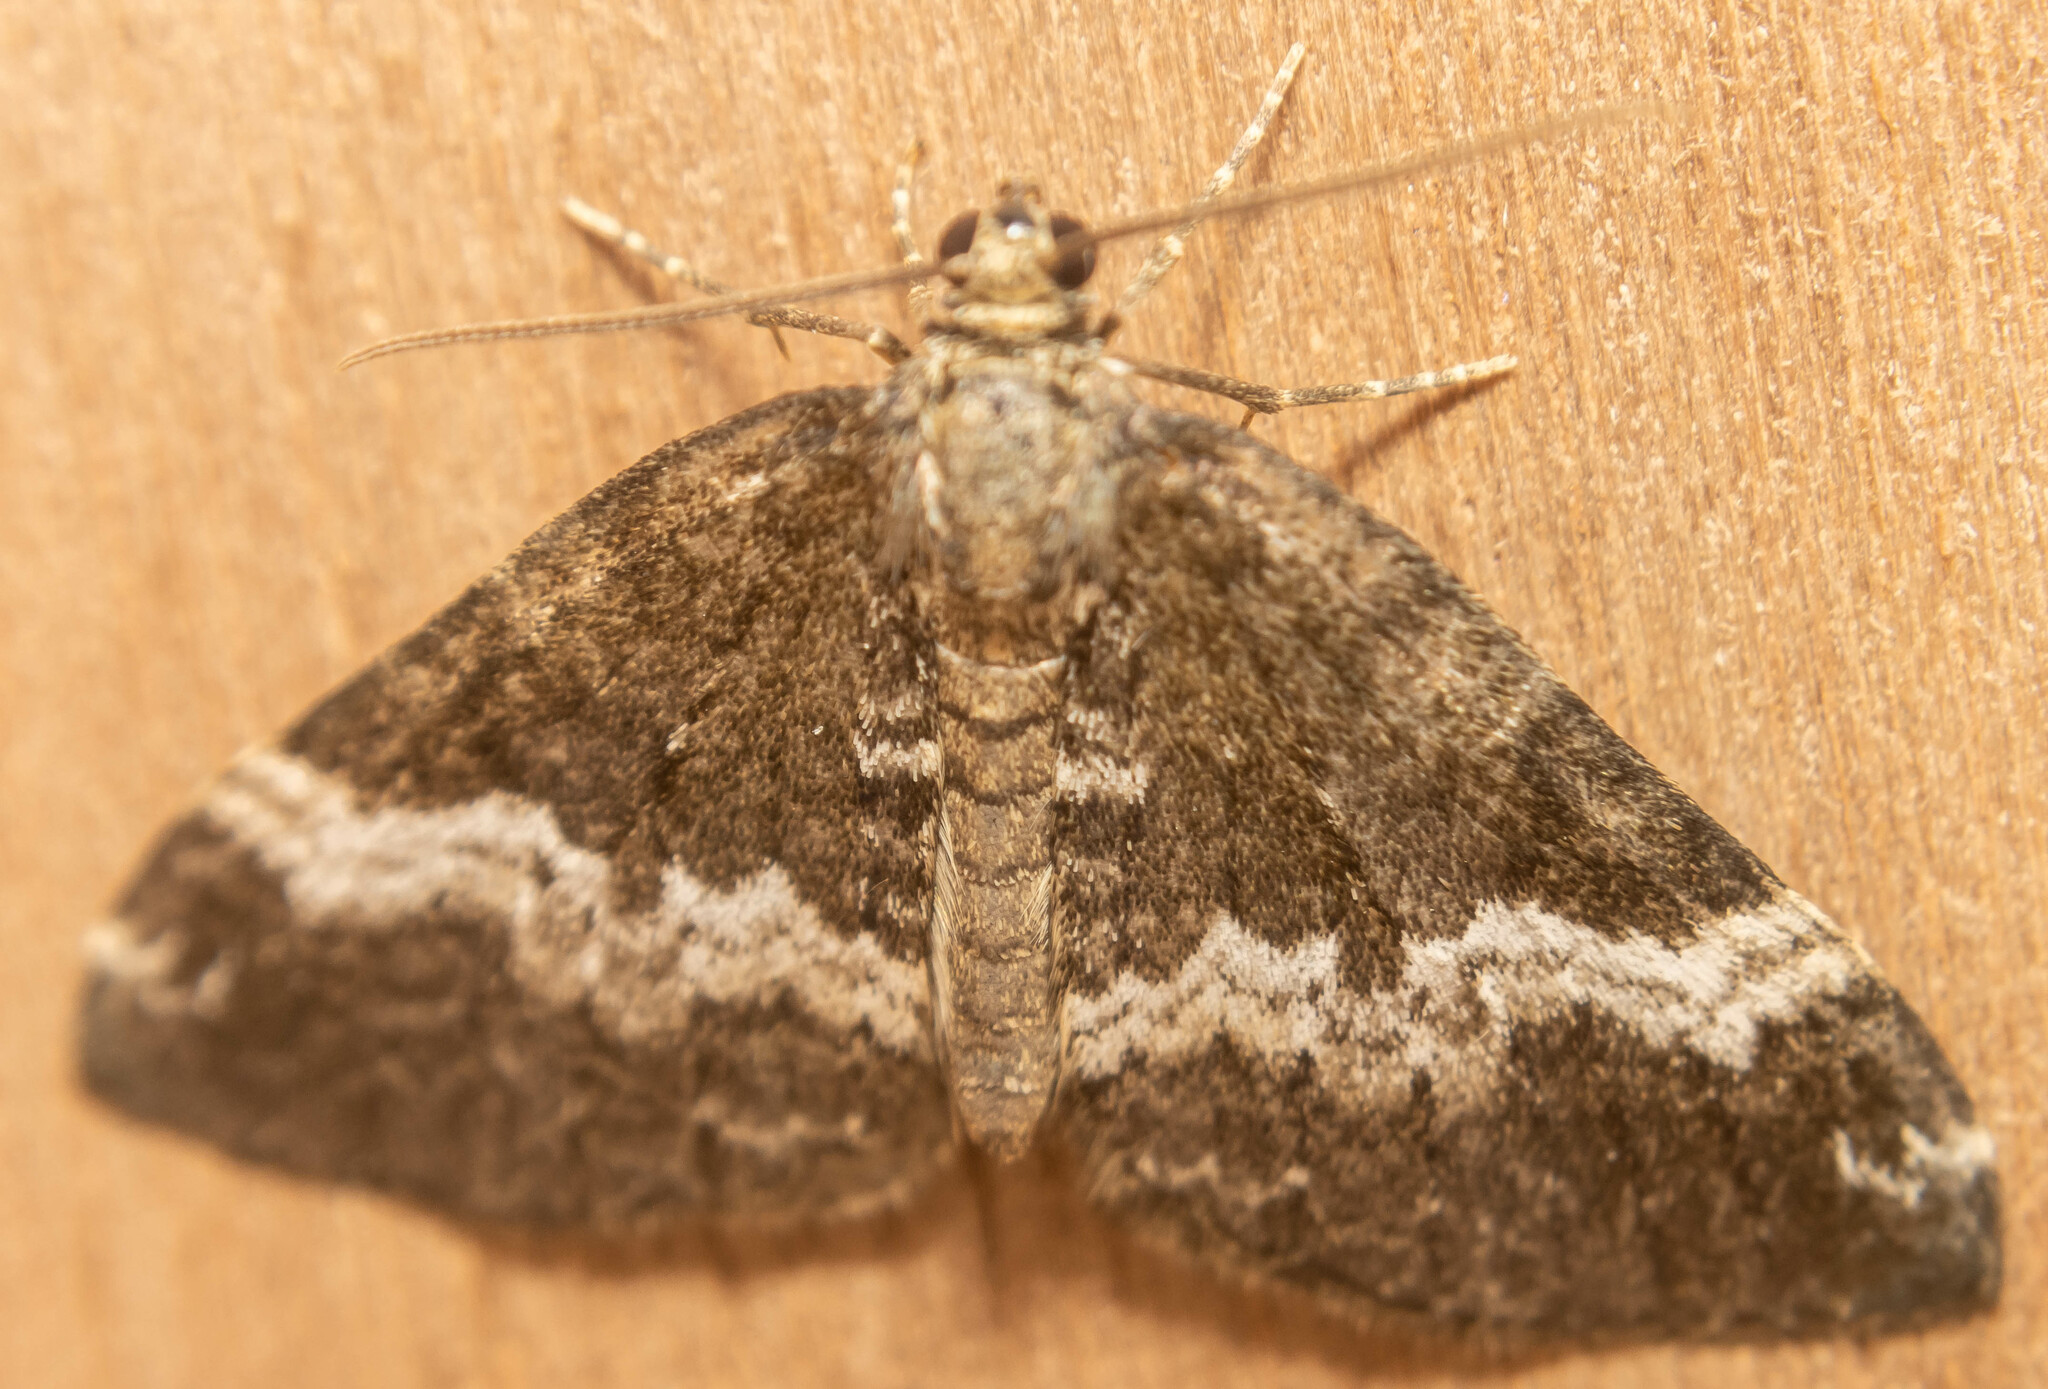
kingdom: Animalia
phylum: Arthropoda
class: Insecta
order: Lepidoptera
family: Geometridae
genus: Perizoma
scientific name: Perizoma affinitata
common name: Rivulet
